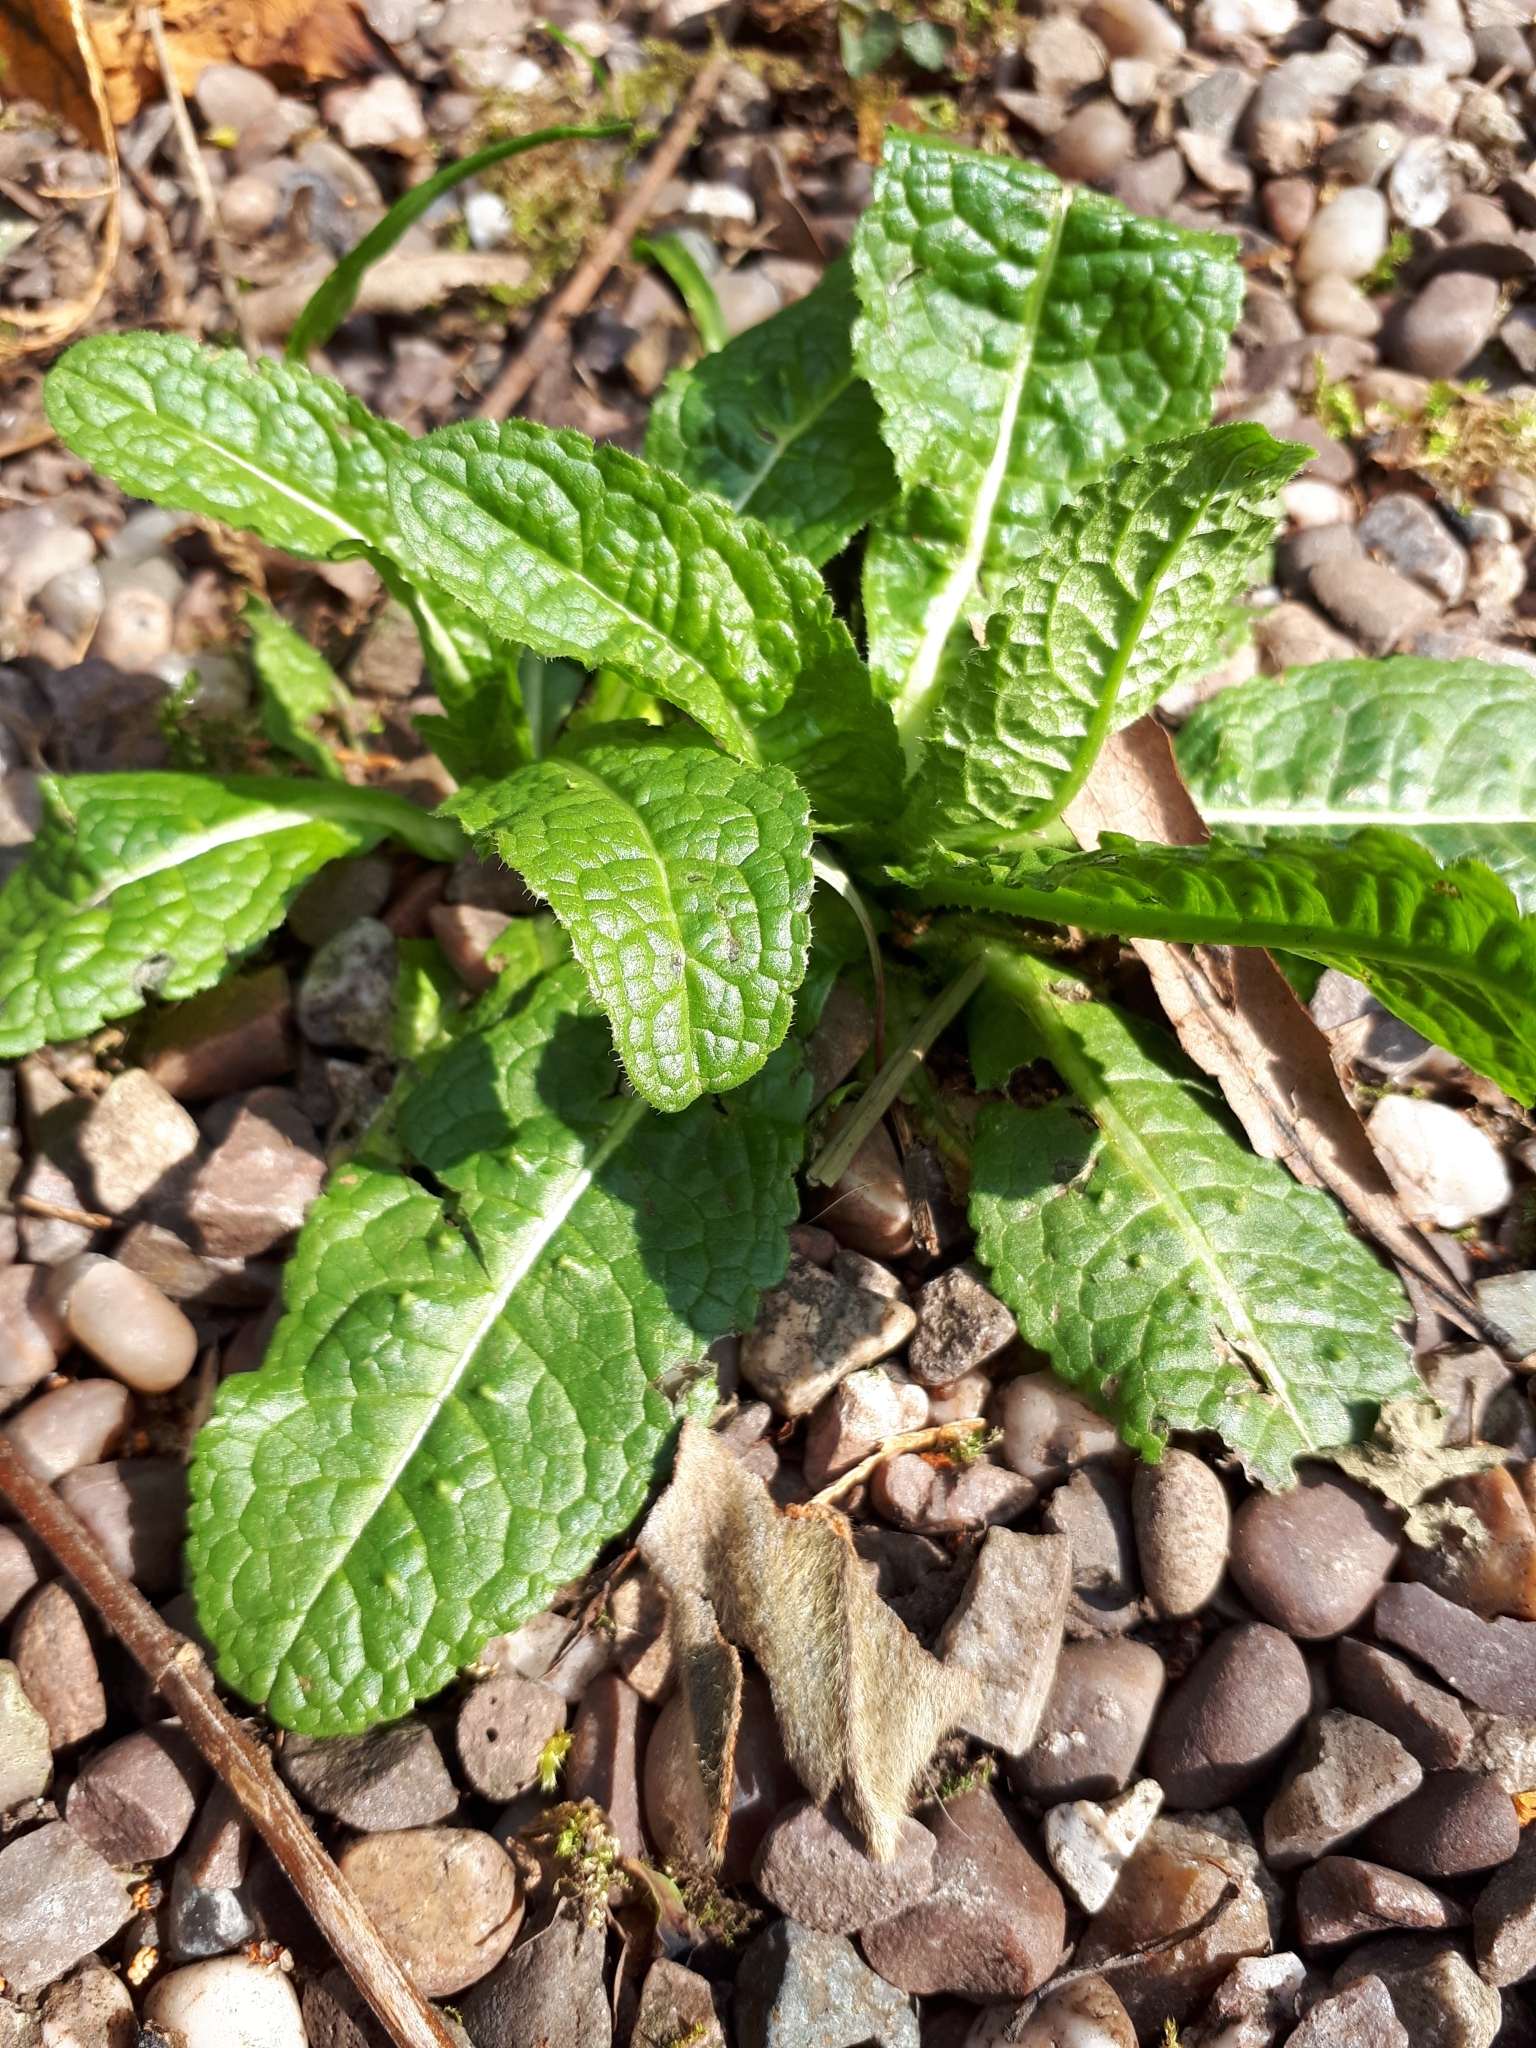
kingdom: Plantae
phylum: Tracheophyta
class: Magnoliopsida
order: Dipsacales
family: Caprifoliaceae
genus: Dipsacus
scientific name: Dipsacus fullonum
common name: Teasel
